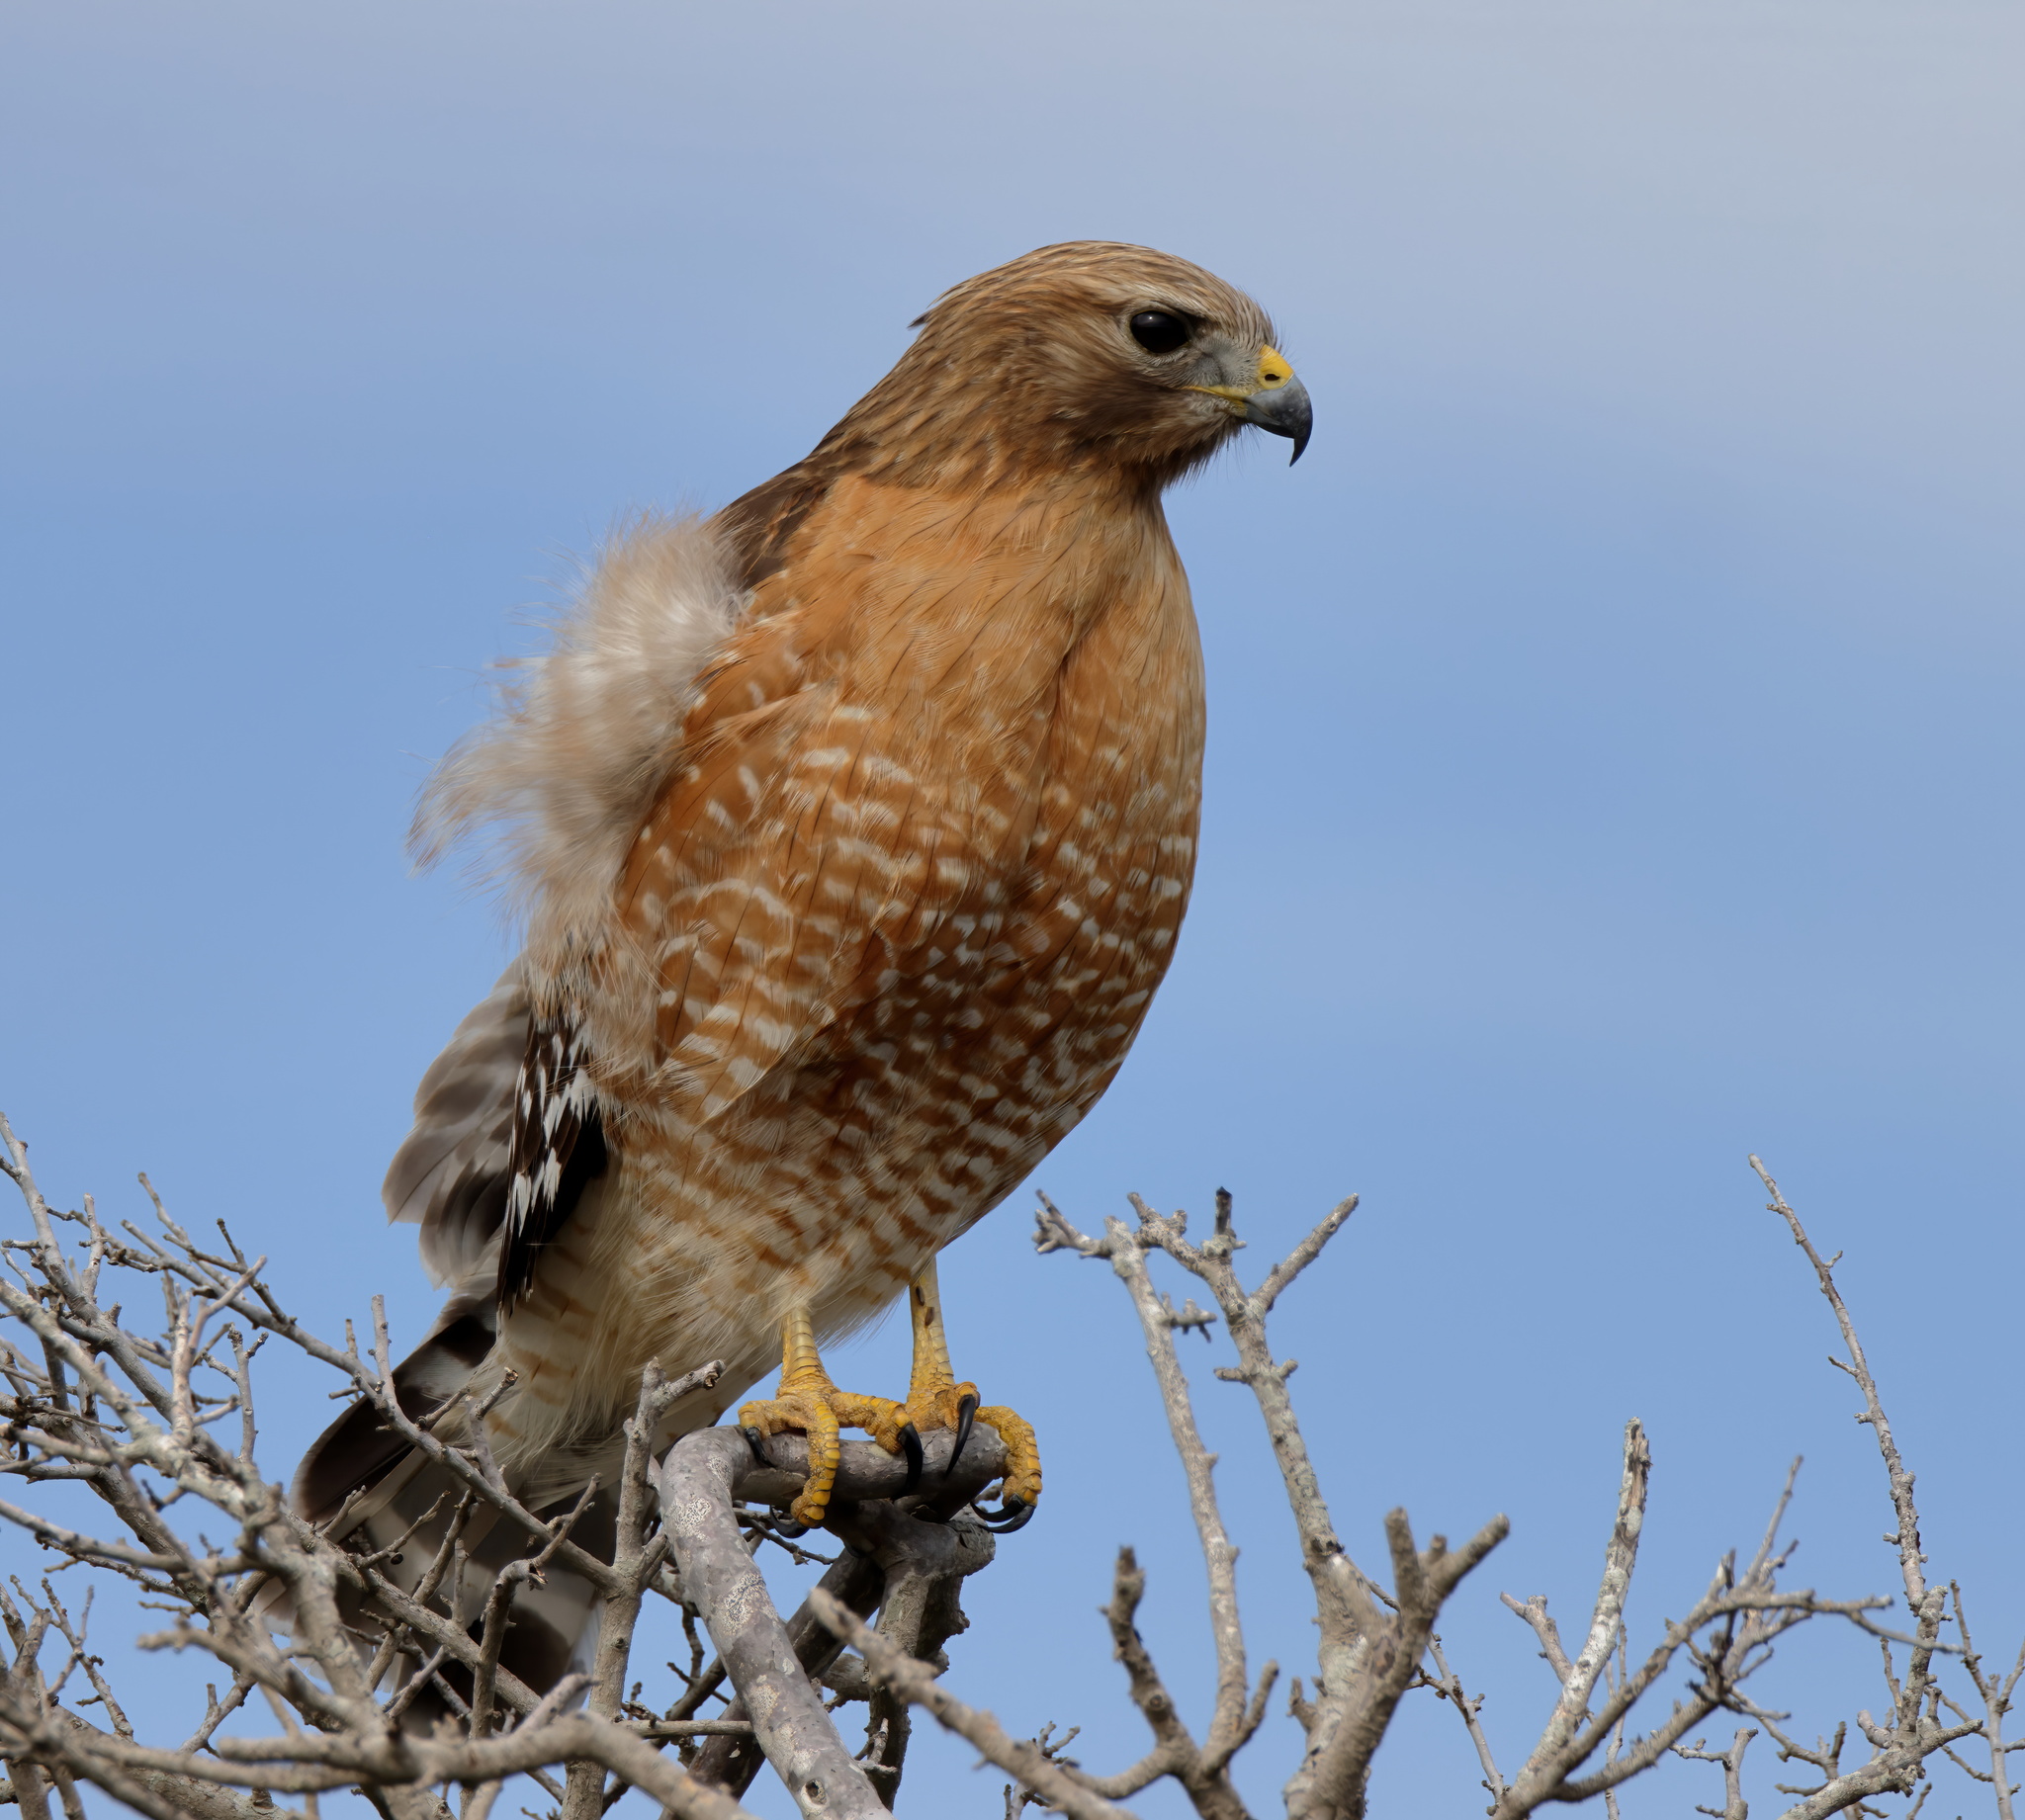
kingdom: Animalia
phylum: Chordata
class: Aves
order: Accipitriformes
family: Accipitridae
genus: Buteo
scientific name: Buteo lineatus
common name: Red-shouldered hawk
